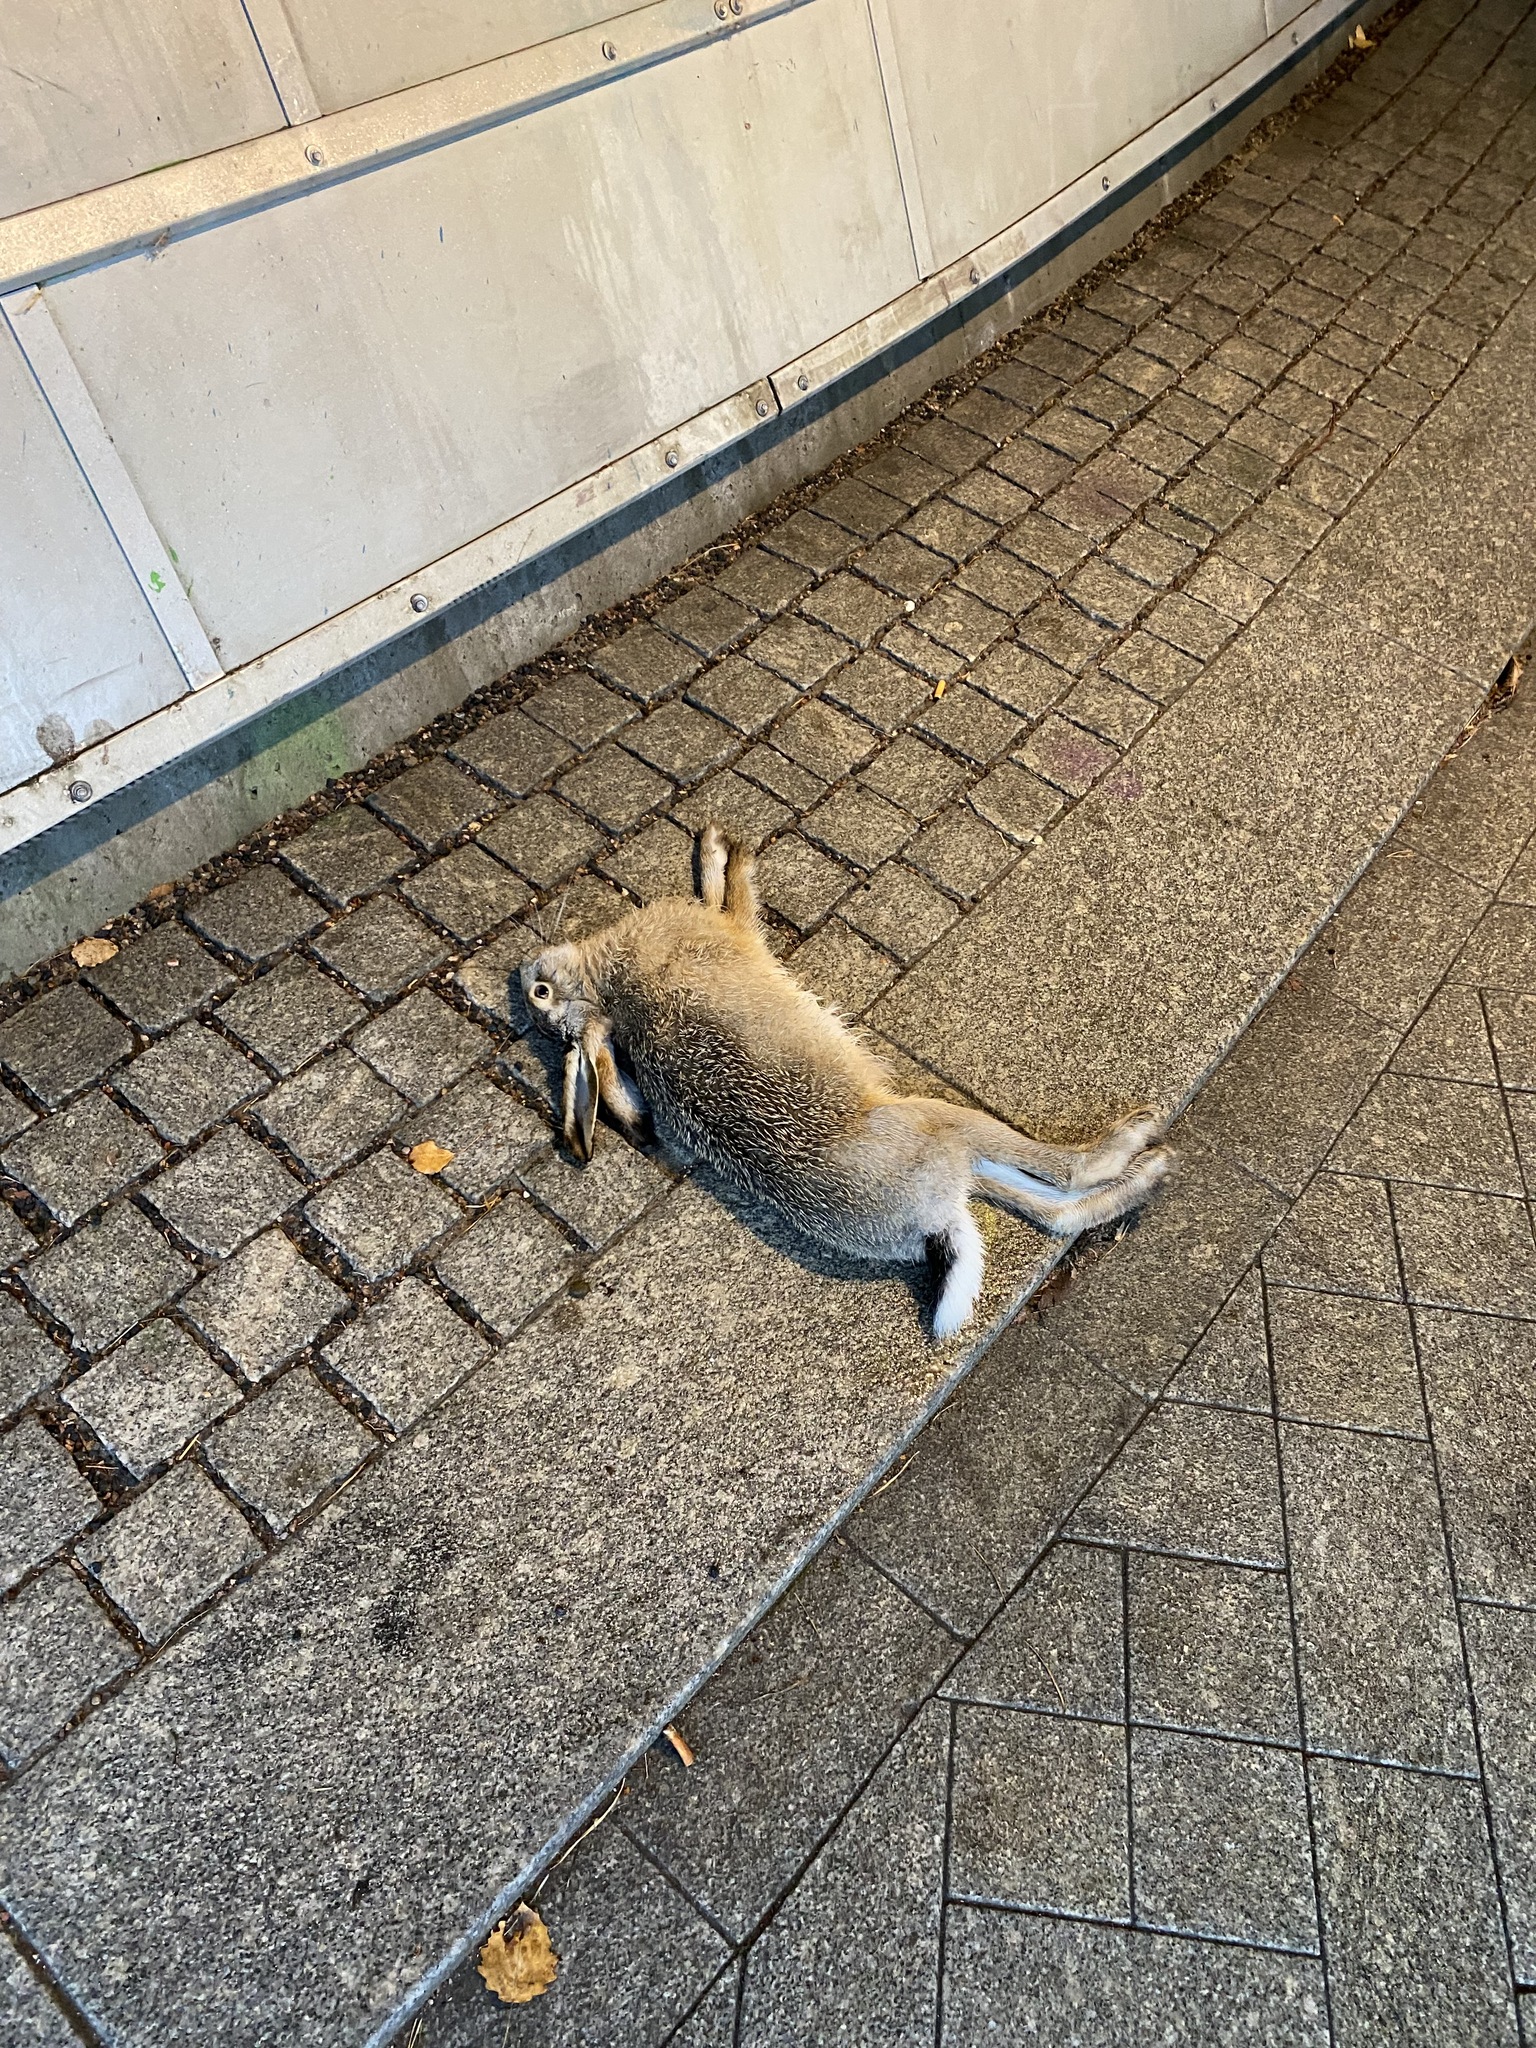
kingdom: Animalia
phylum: Chordata
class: Mammalia
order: Lagomorpha
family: Leporidae
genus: Lepus
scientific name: Lepus europaeus
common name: European hare
